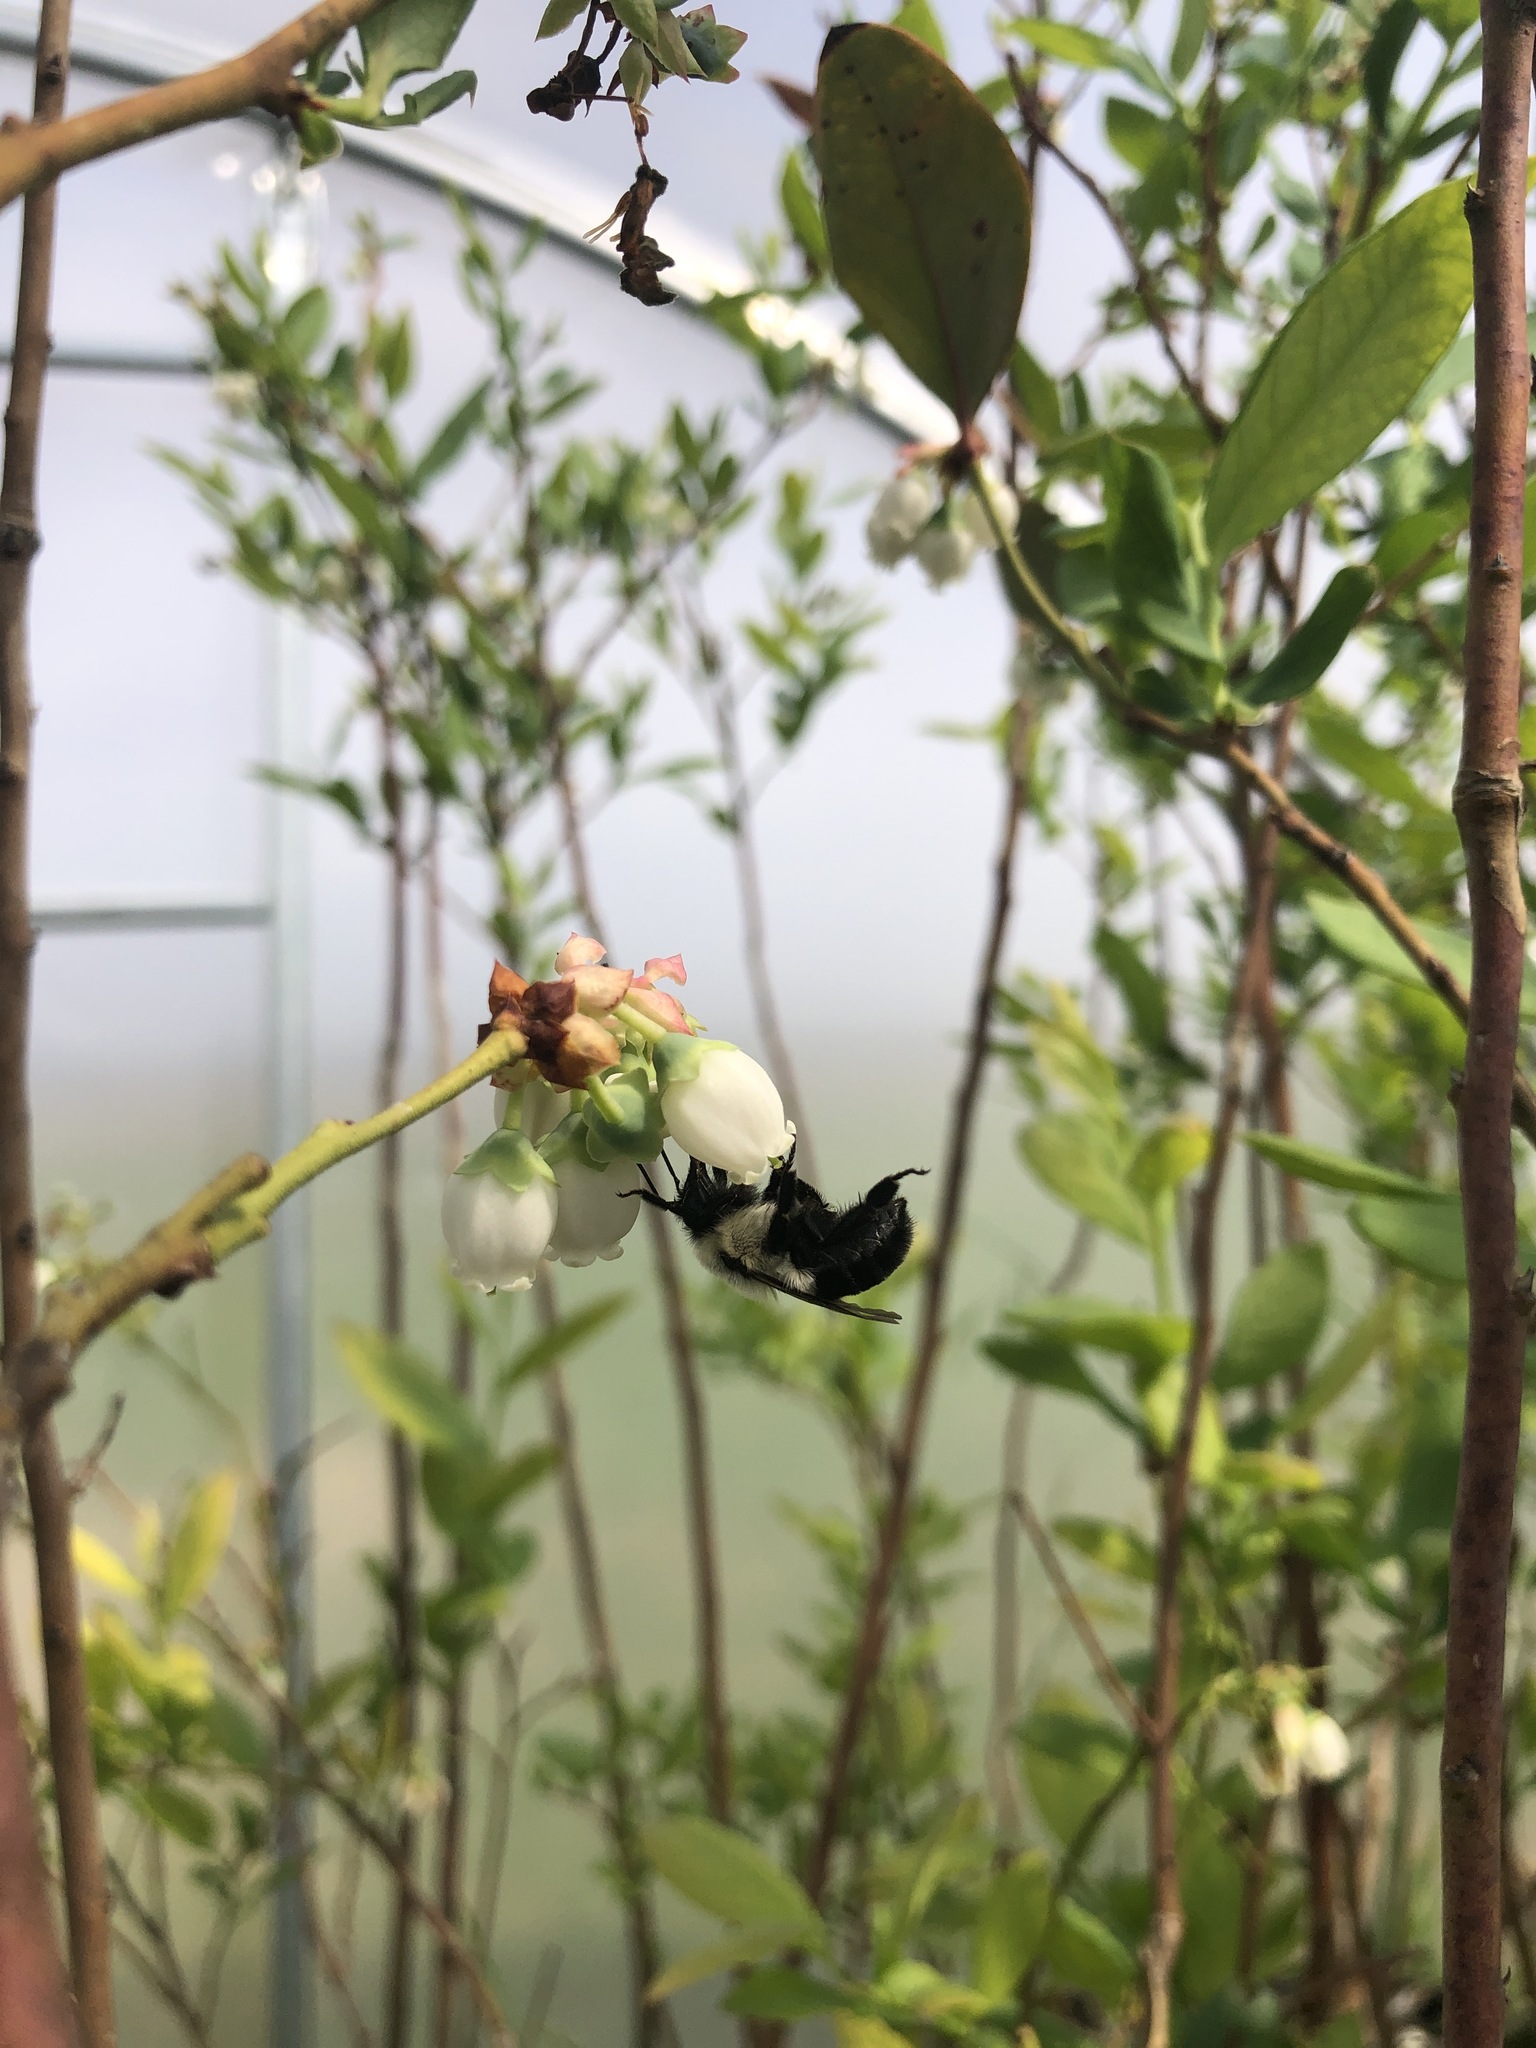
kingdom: Animalia
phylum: Arthropoda
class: Insecta
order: Hymenoptera
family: Apidae
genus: Bombus
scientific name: Bombus impatiens
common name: Common eastern bumble bee
